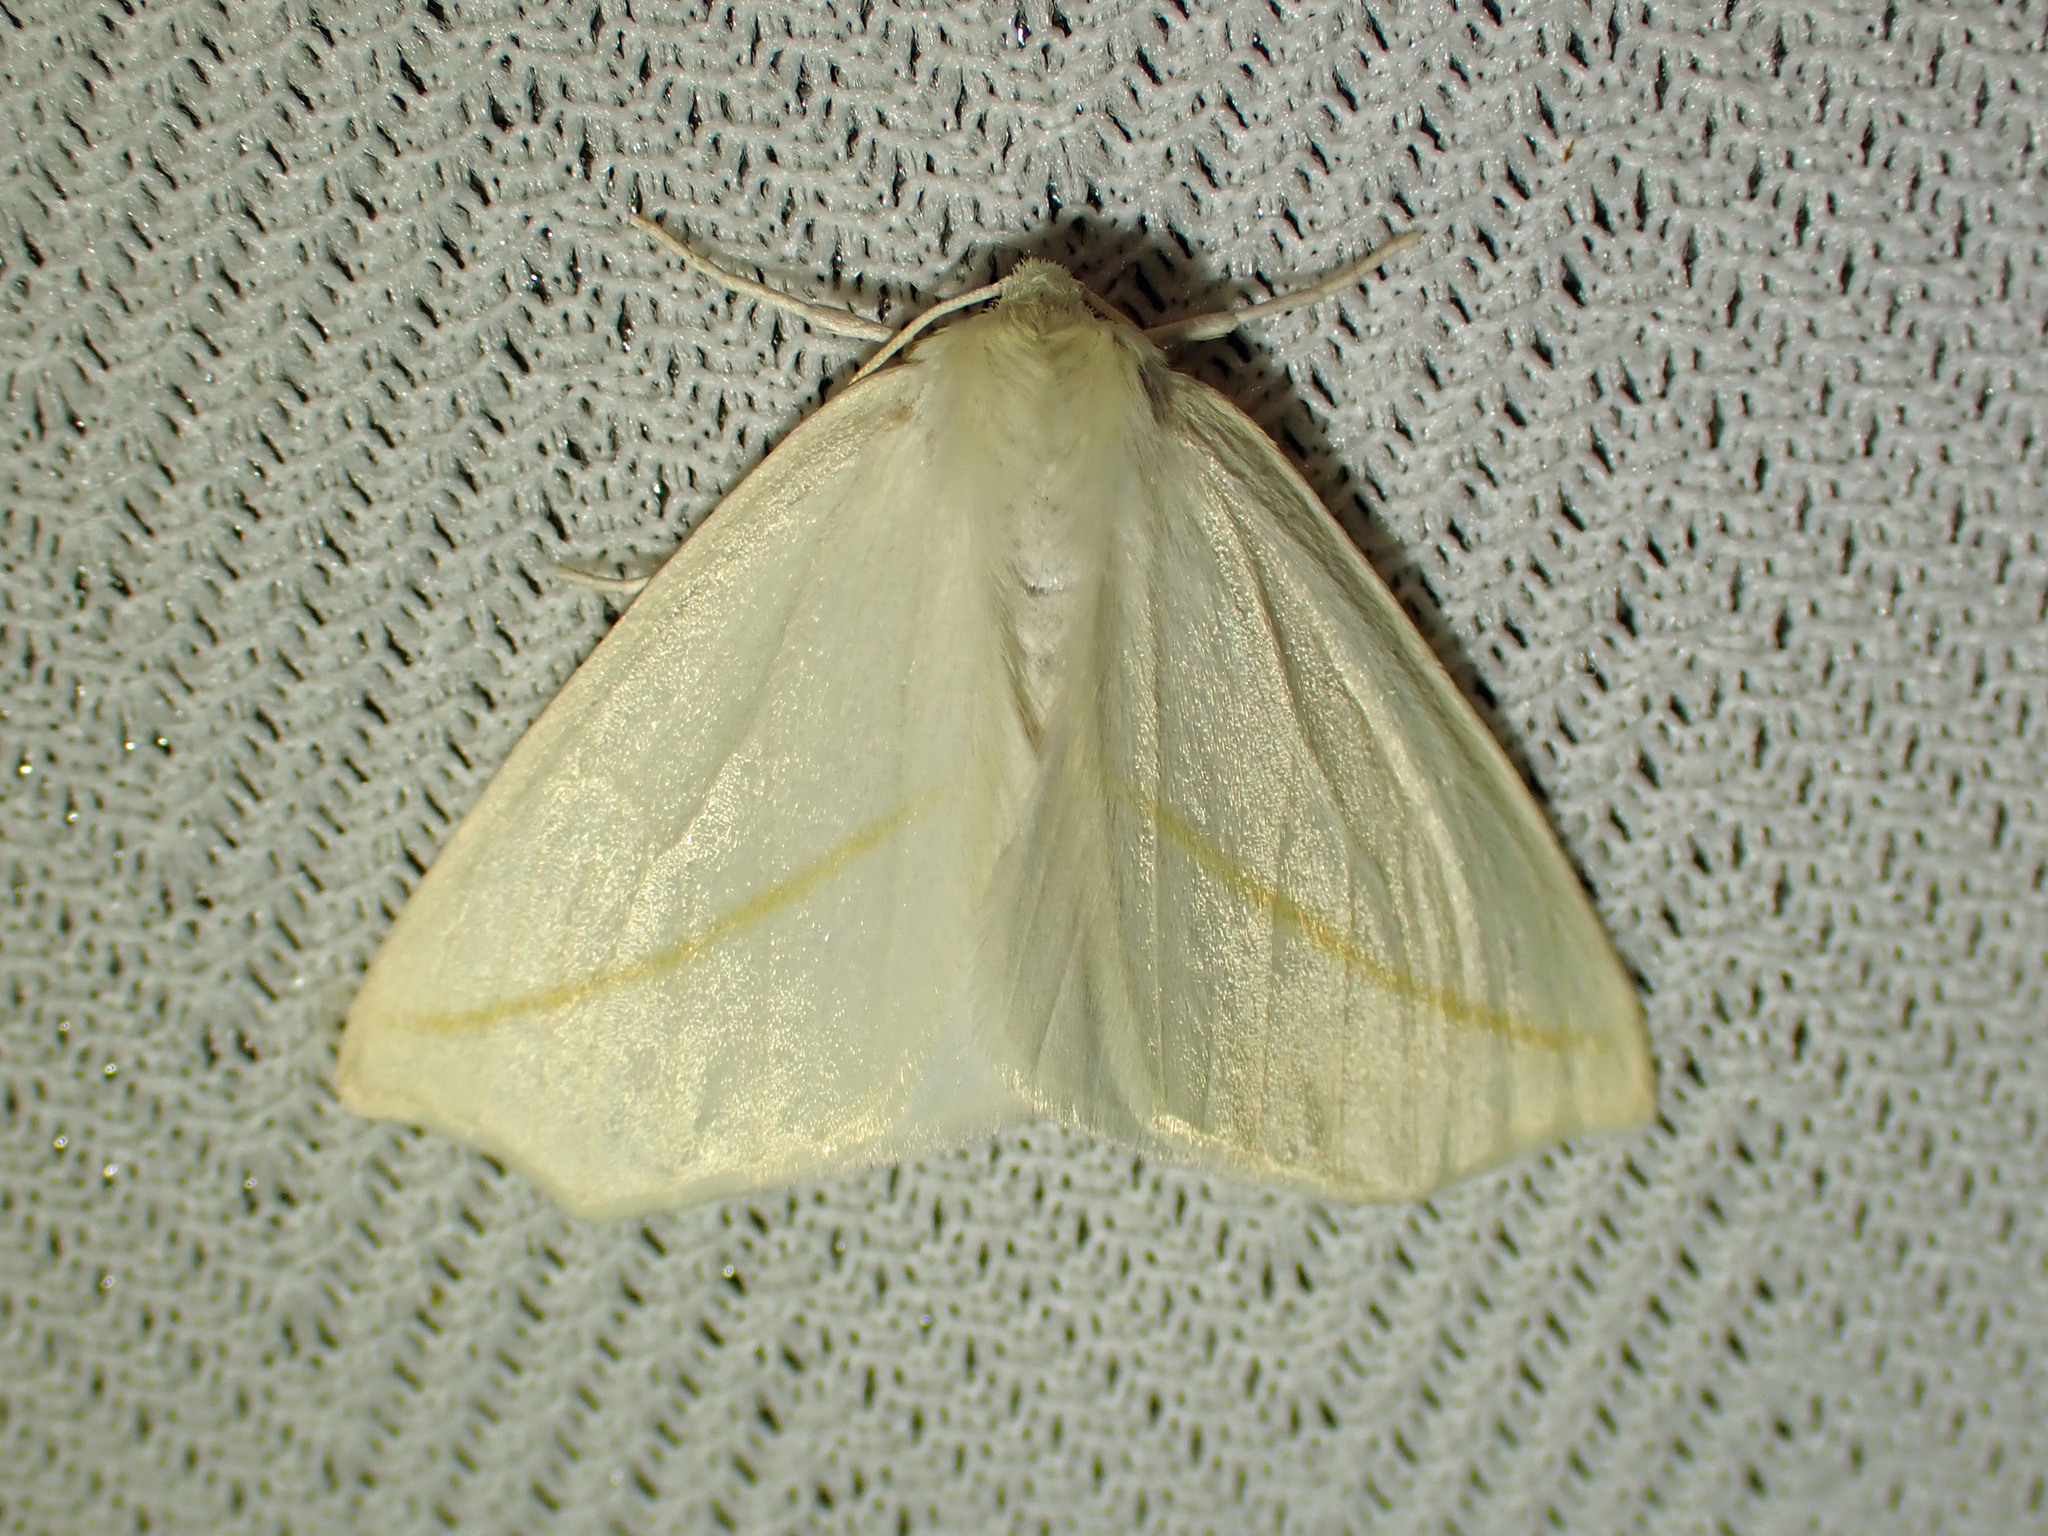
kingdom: Animalia
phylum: Arthropoda
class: Insecta
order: Lepidoptera
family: Geometridae
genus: Tetracis
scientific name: Tetracis cachexiata
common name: White slant-line
